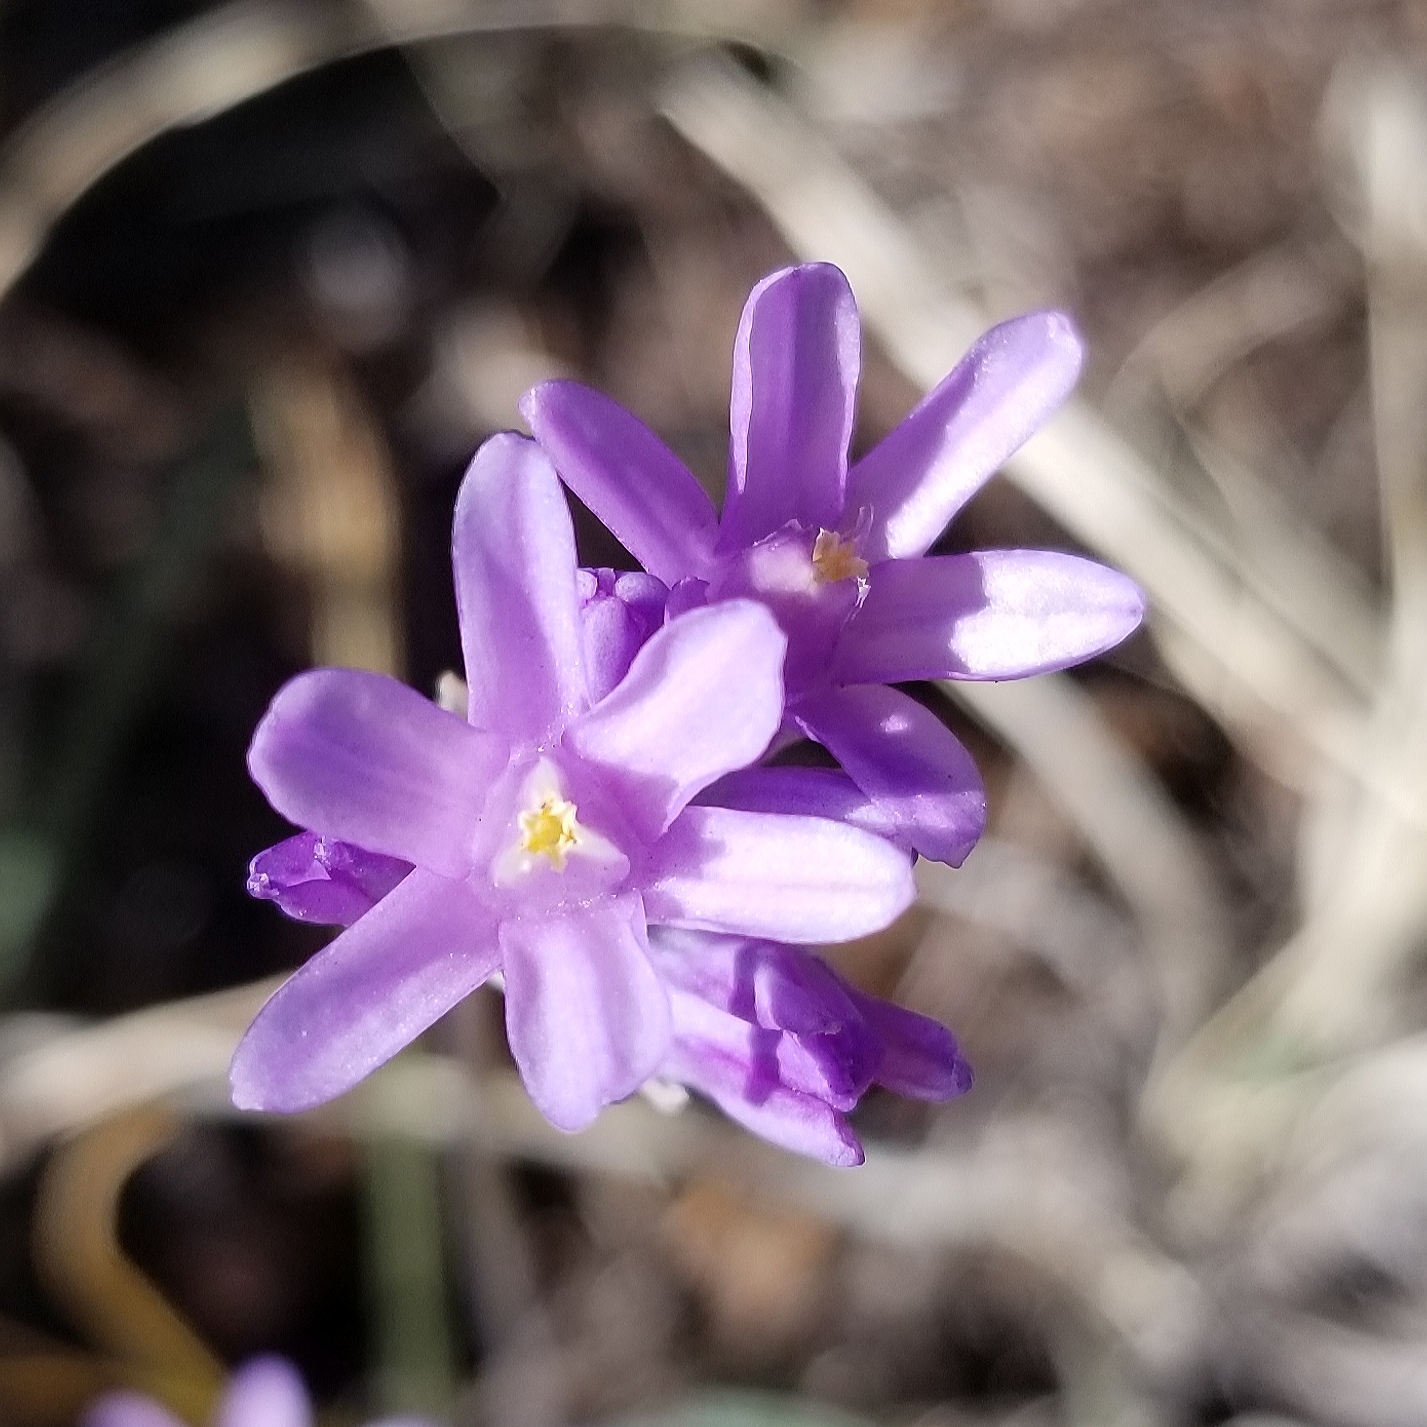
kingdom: Plantae
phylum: Tracheophyta
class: Liliopsida
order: Asparagales
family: Asparagaceae
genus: Dipterostemon
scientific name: Dipterostemon capitatus
